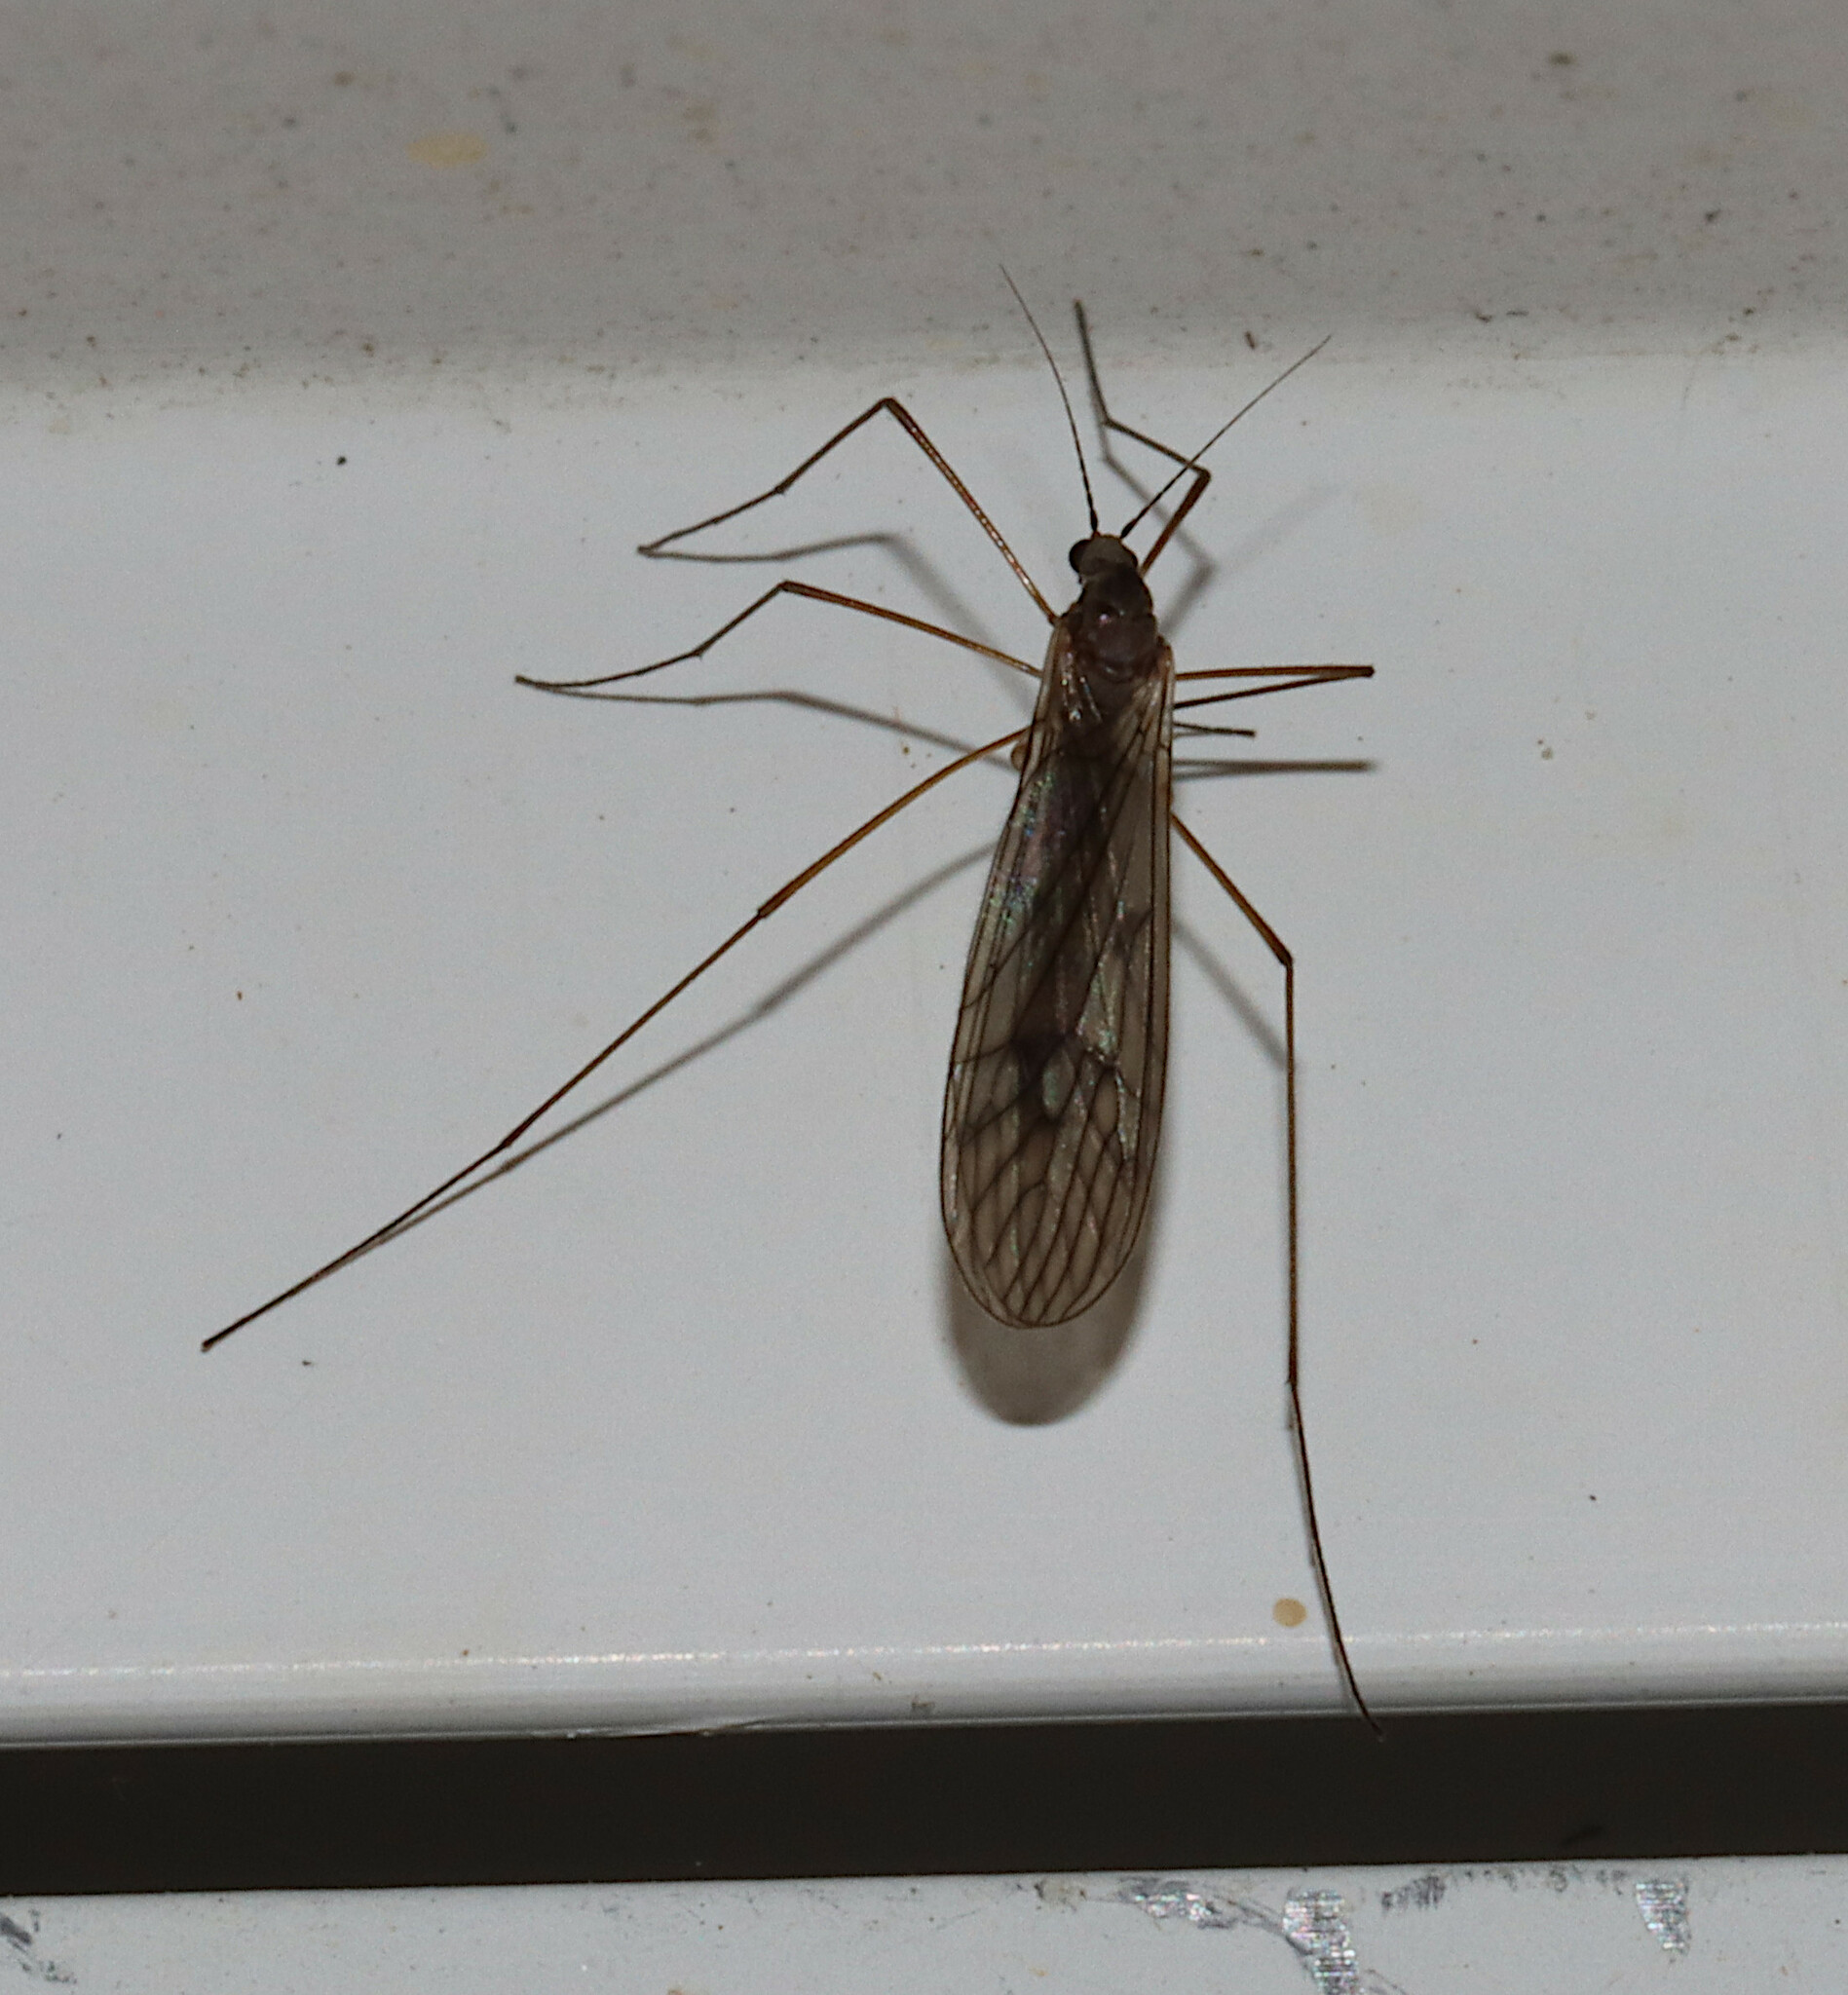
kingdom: Animalia
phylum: Arthropoda
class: Insecta
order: Diptera
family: Trichoceridae
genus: Trichocera
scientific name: Trichocera bimacula
